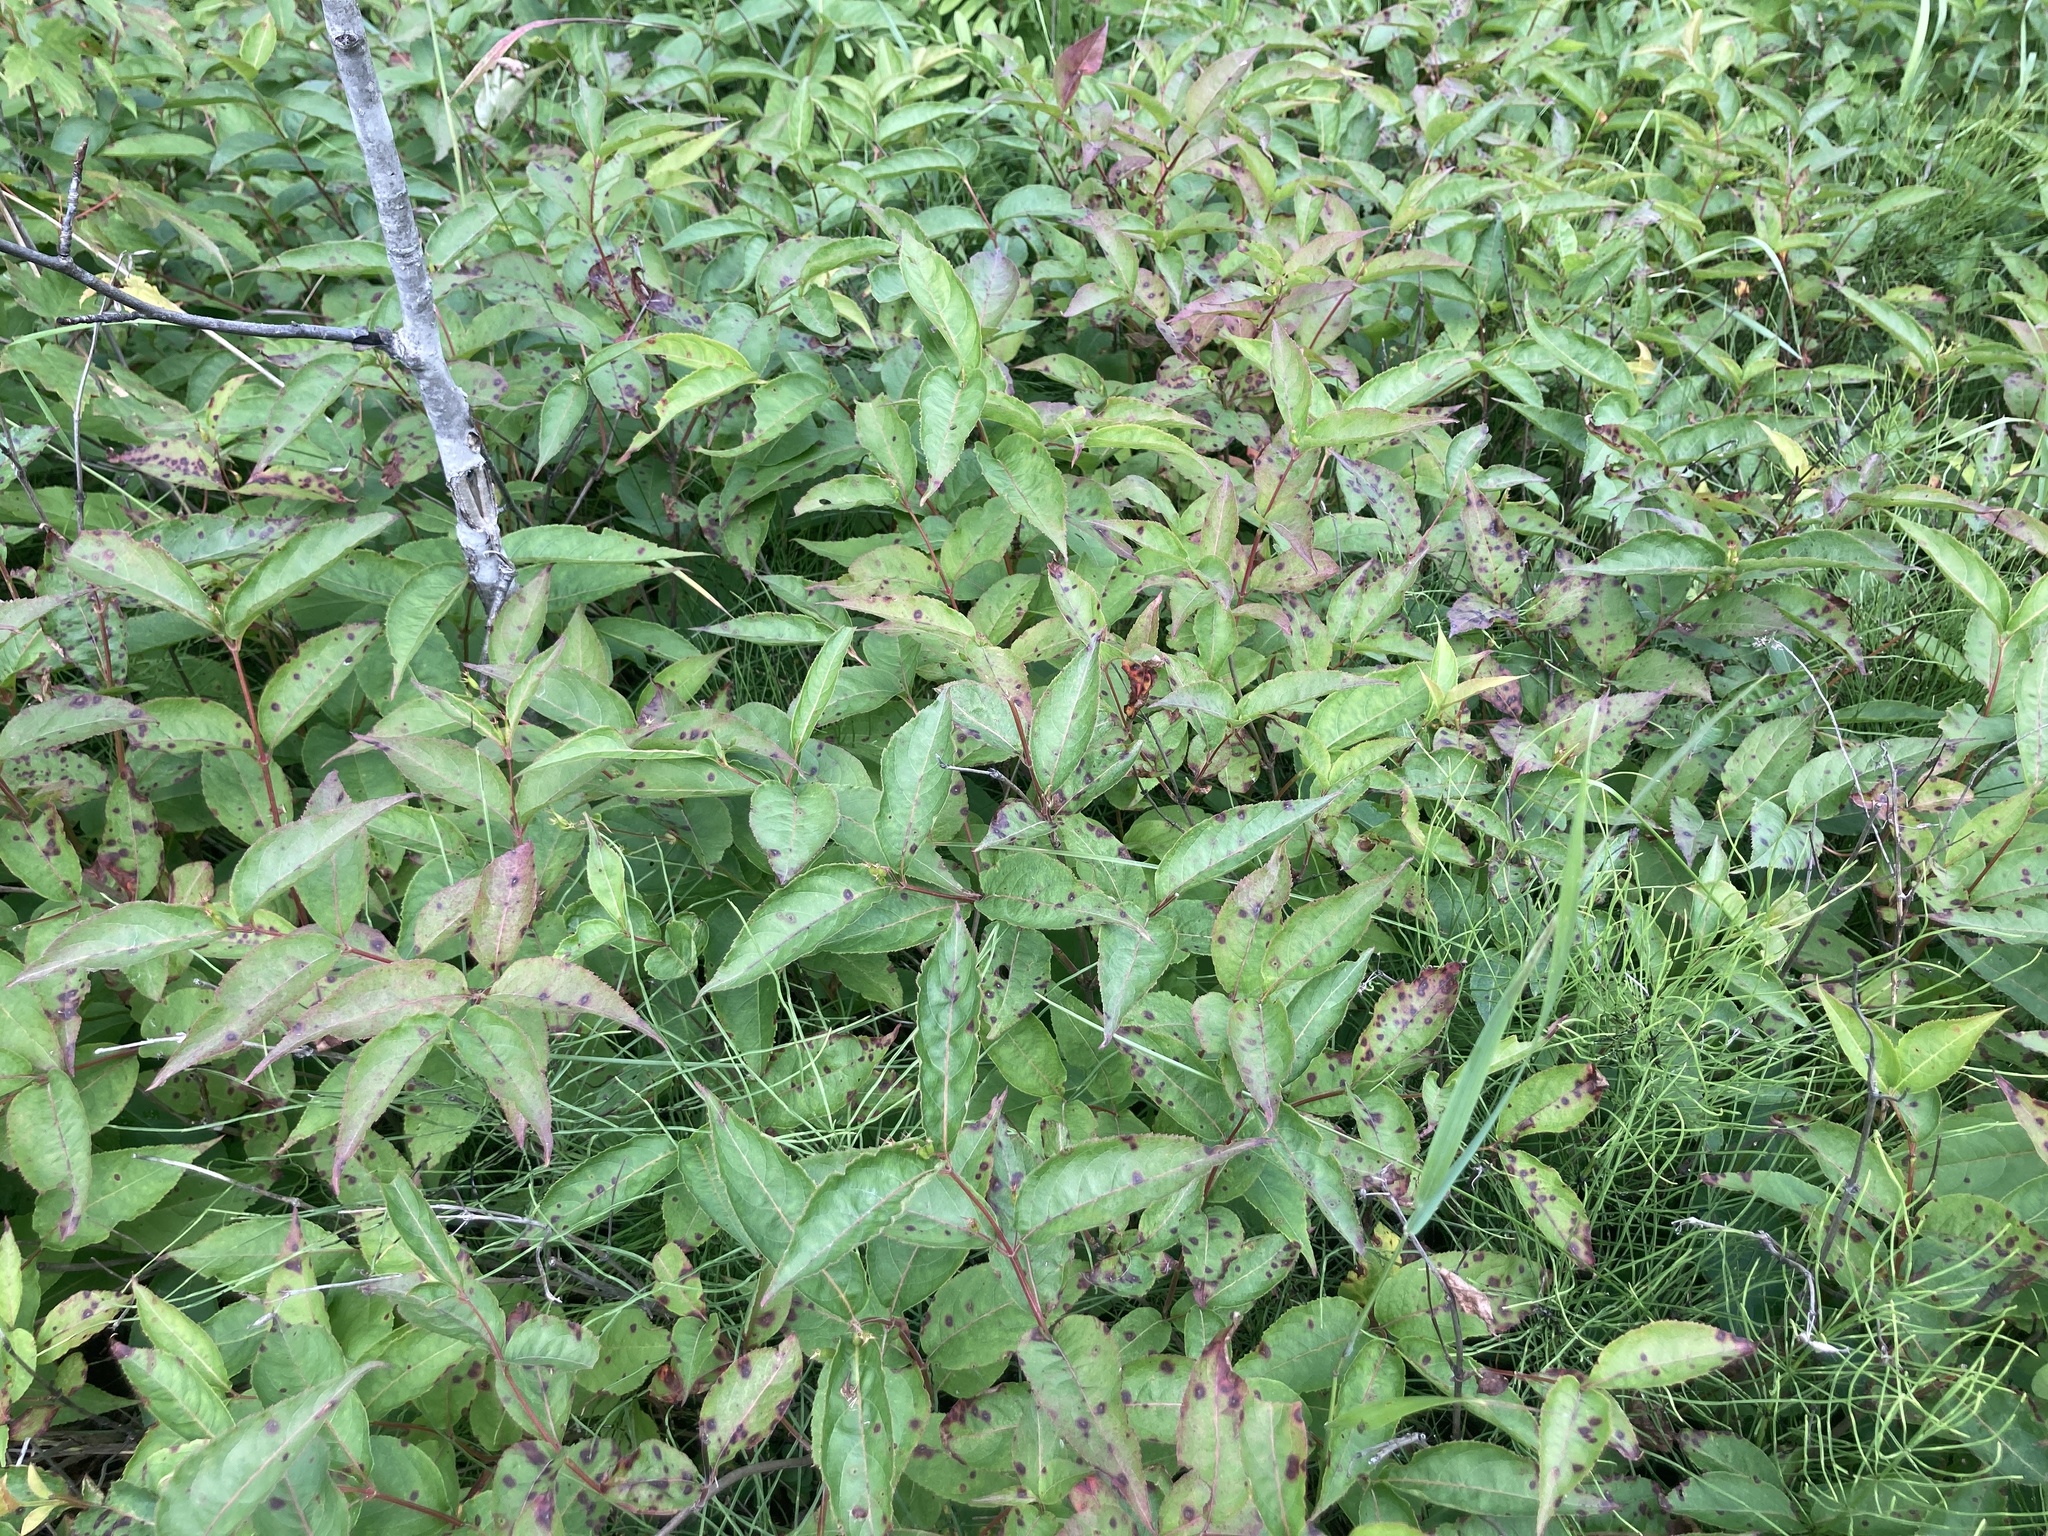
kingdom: Plantae
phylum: Tracheophyta
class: Magnoliopsida
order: Dipsacales
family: Caprifoliaceae
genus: Diervilla
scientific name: Diervilla lonicera
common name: Bush-honeysuckle
